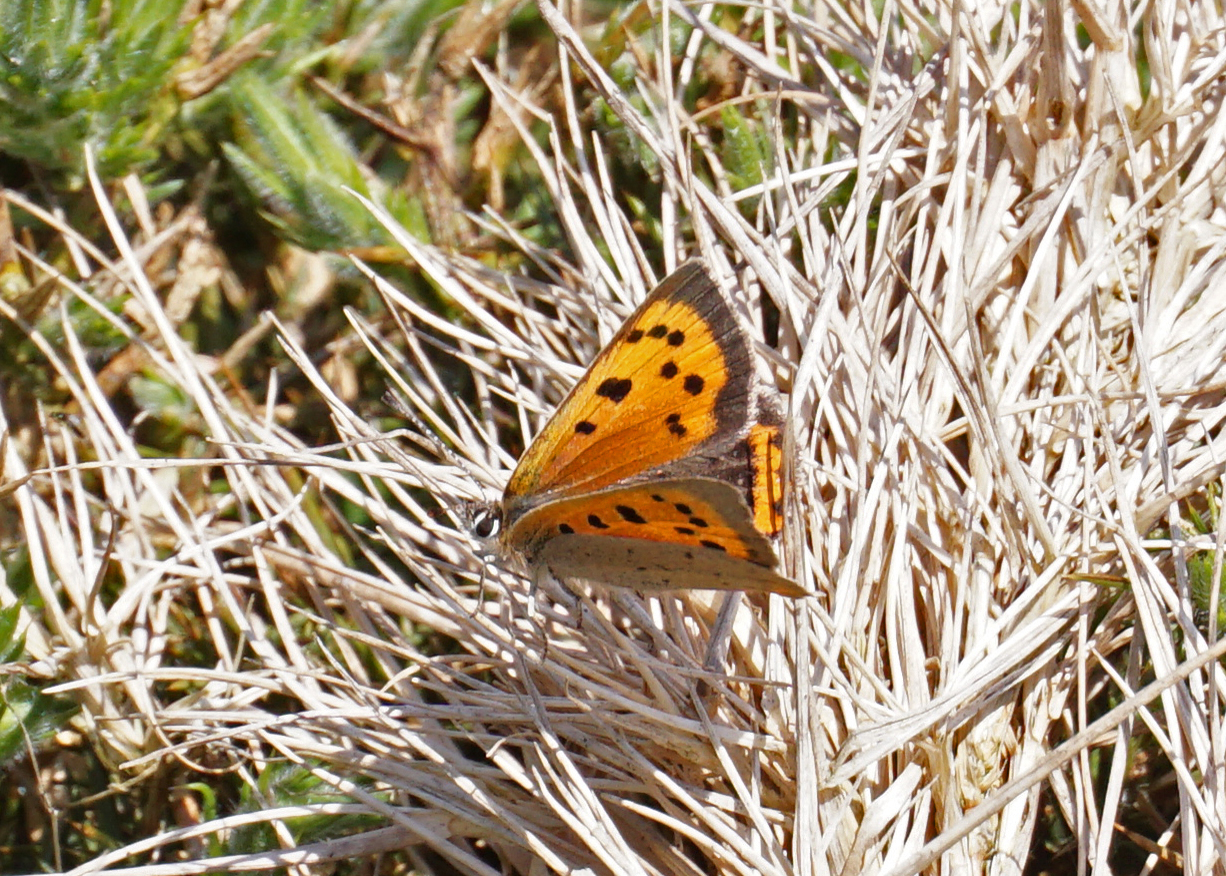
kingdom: Animalia
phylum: Arthropoda
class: Insecta
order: Lepidoptera
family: Lycaenidae
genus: Lycaena
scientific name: Lycaena phlaeas
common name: Small copper
